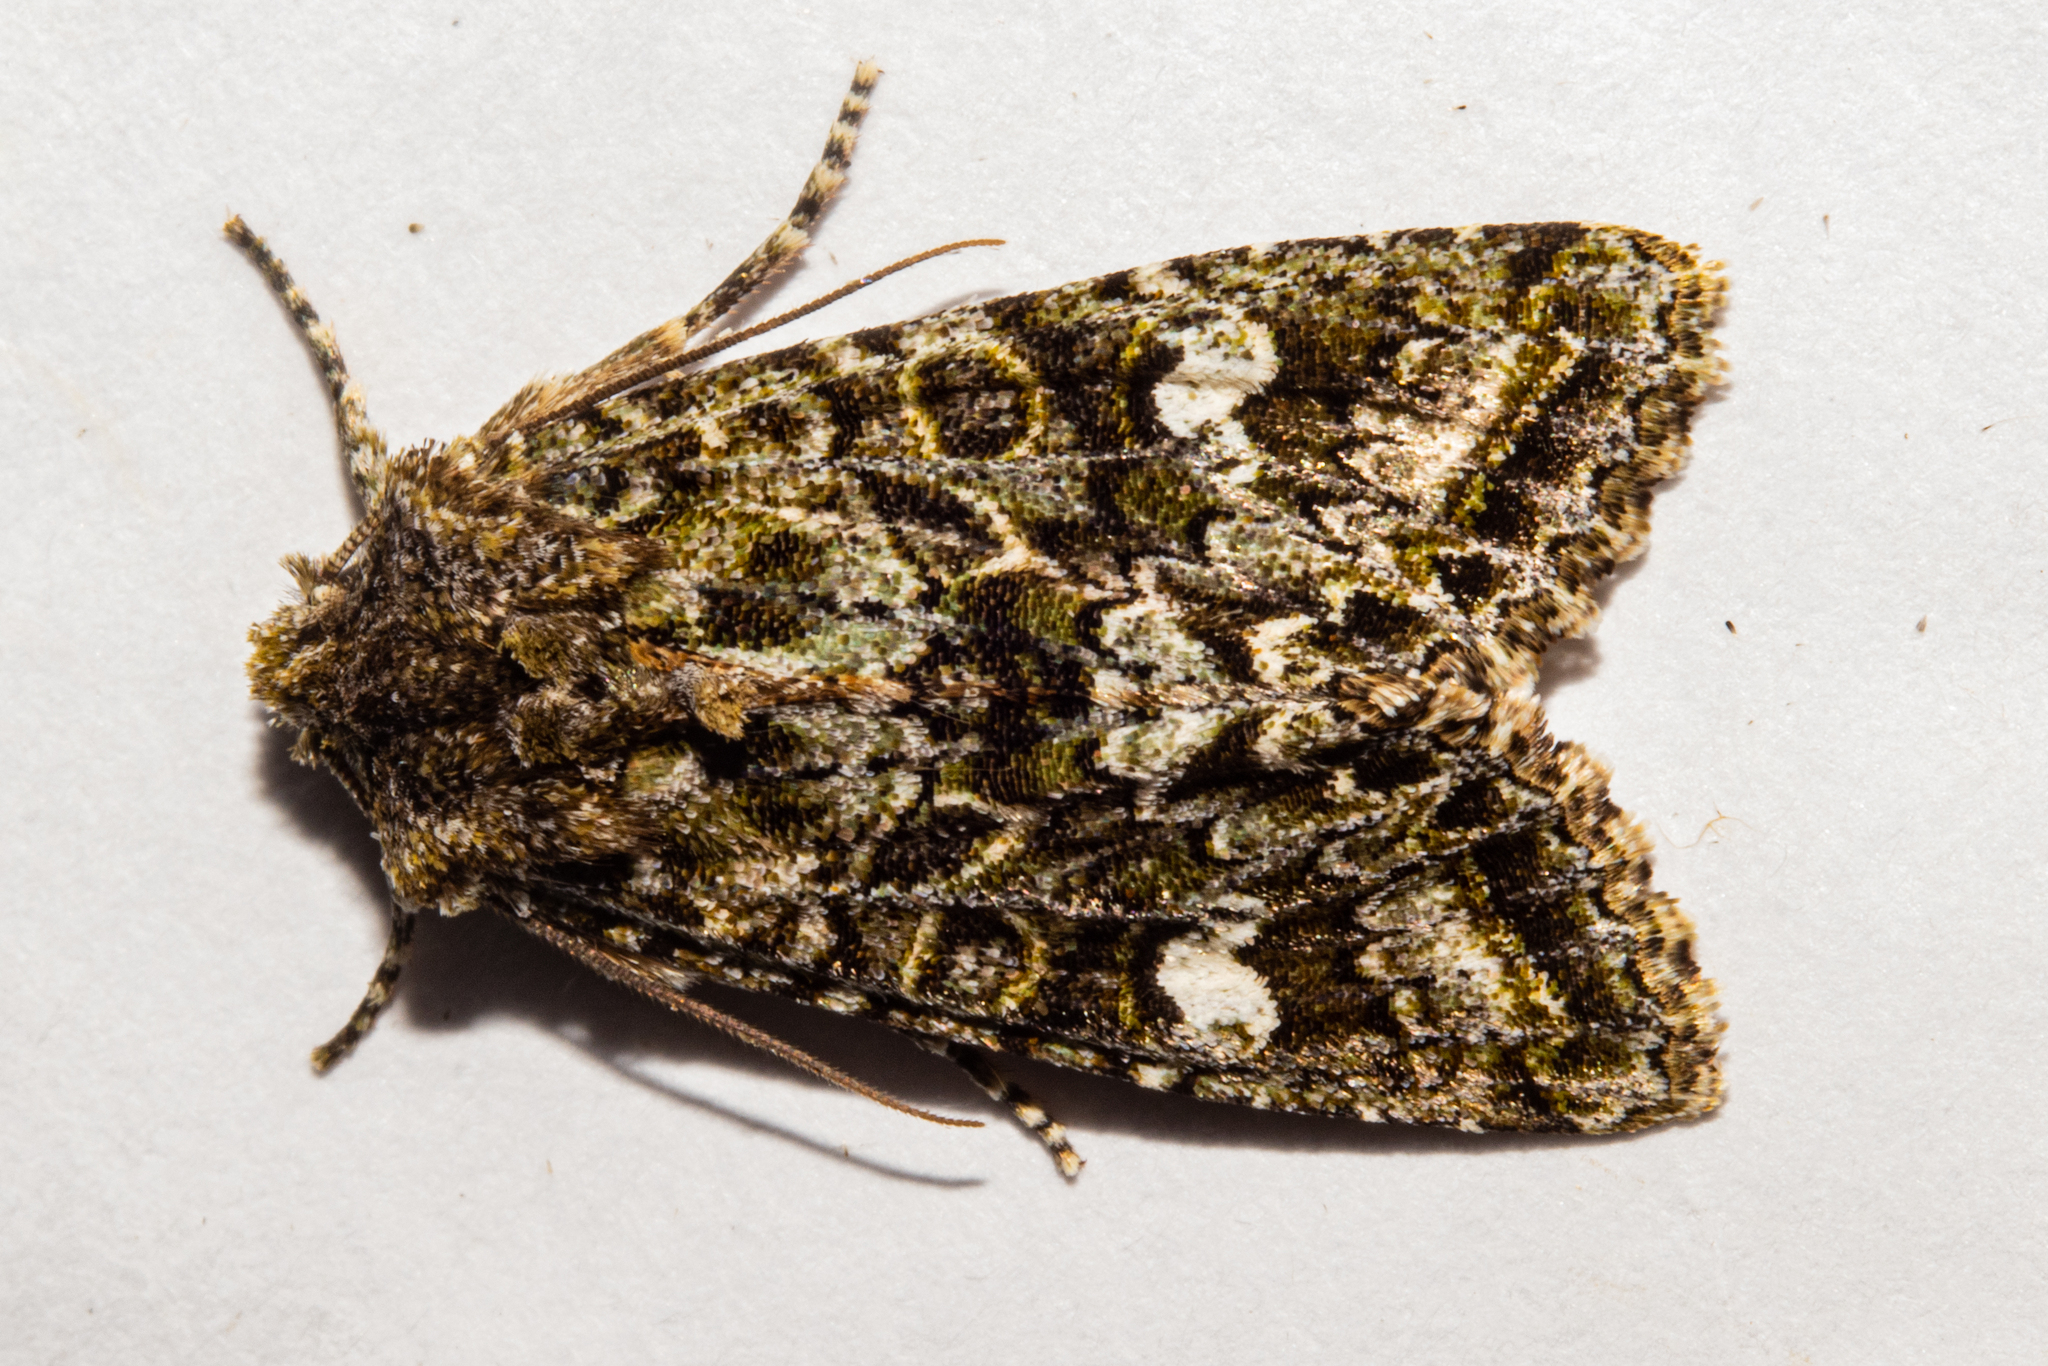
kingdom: Animalia
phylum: Arthropoda
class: Insecta
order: Lepidoptera
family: Noctuidae
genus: Ichneutica
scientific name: Ichneutica
